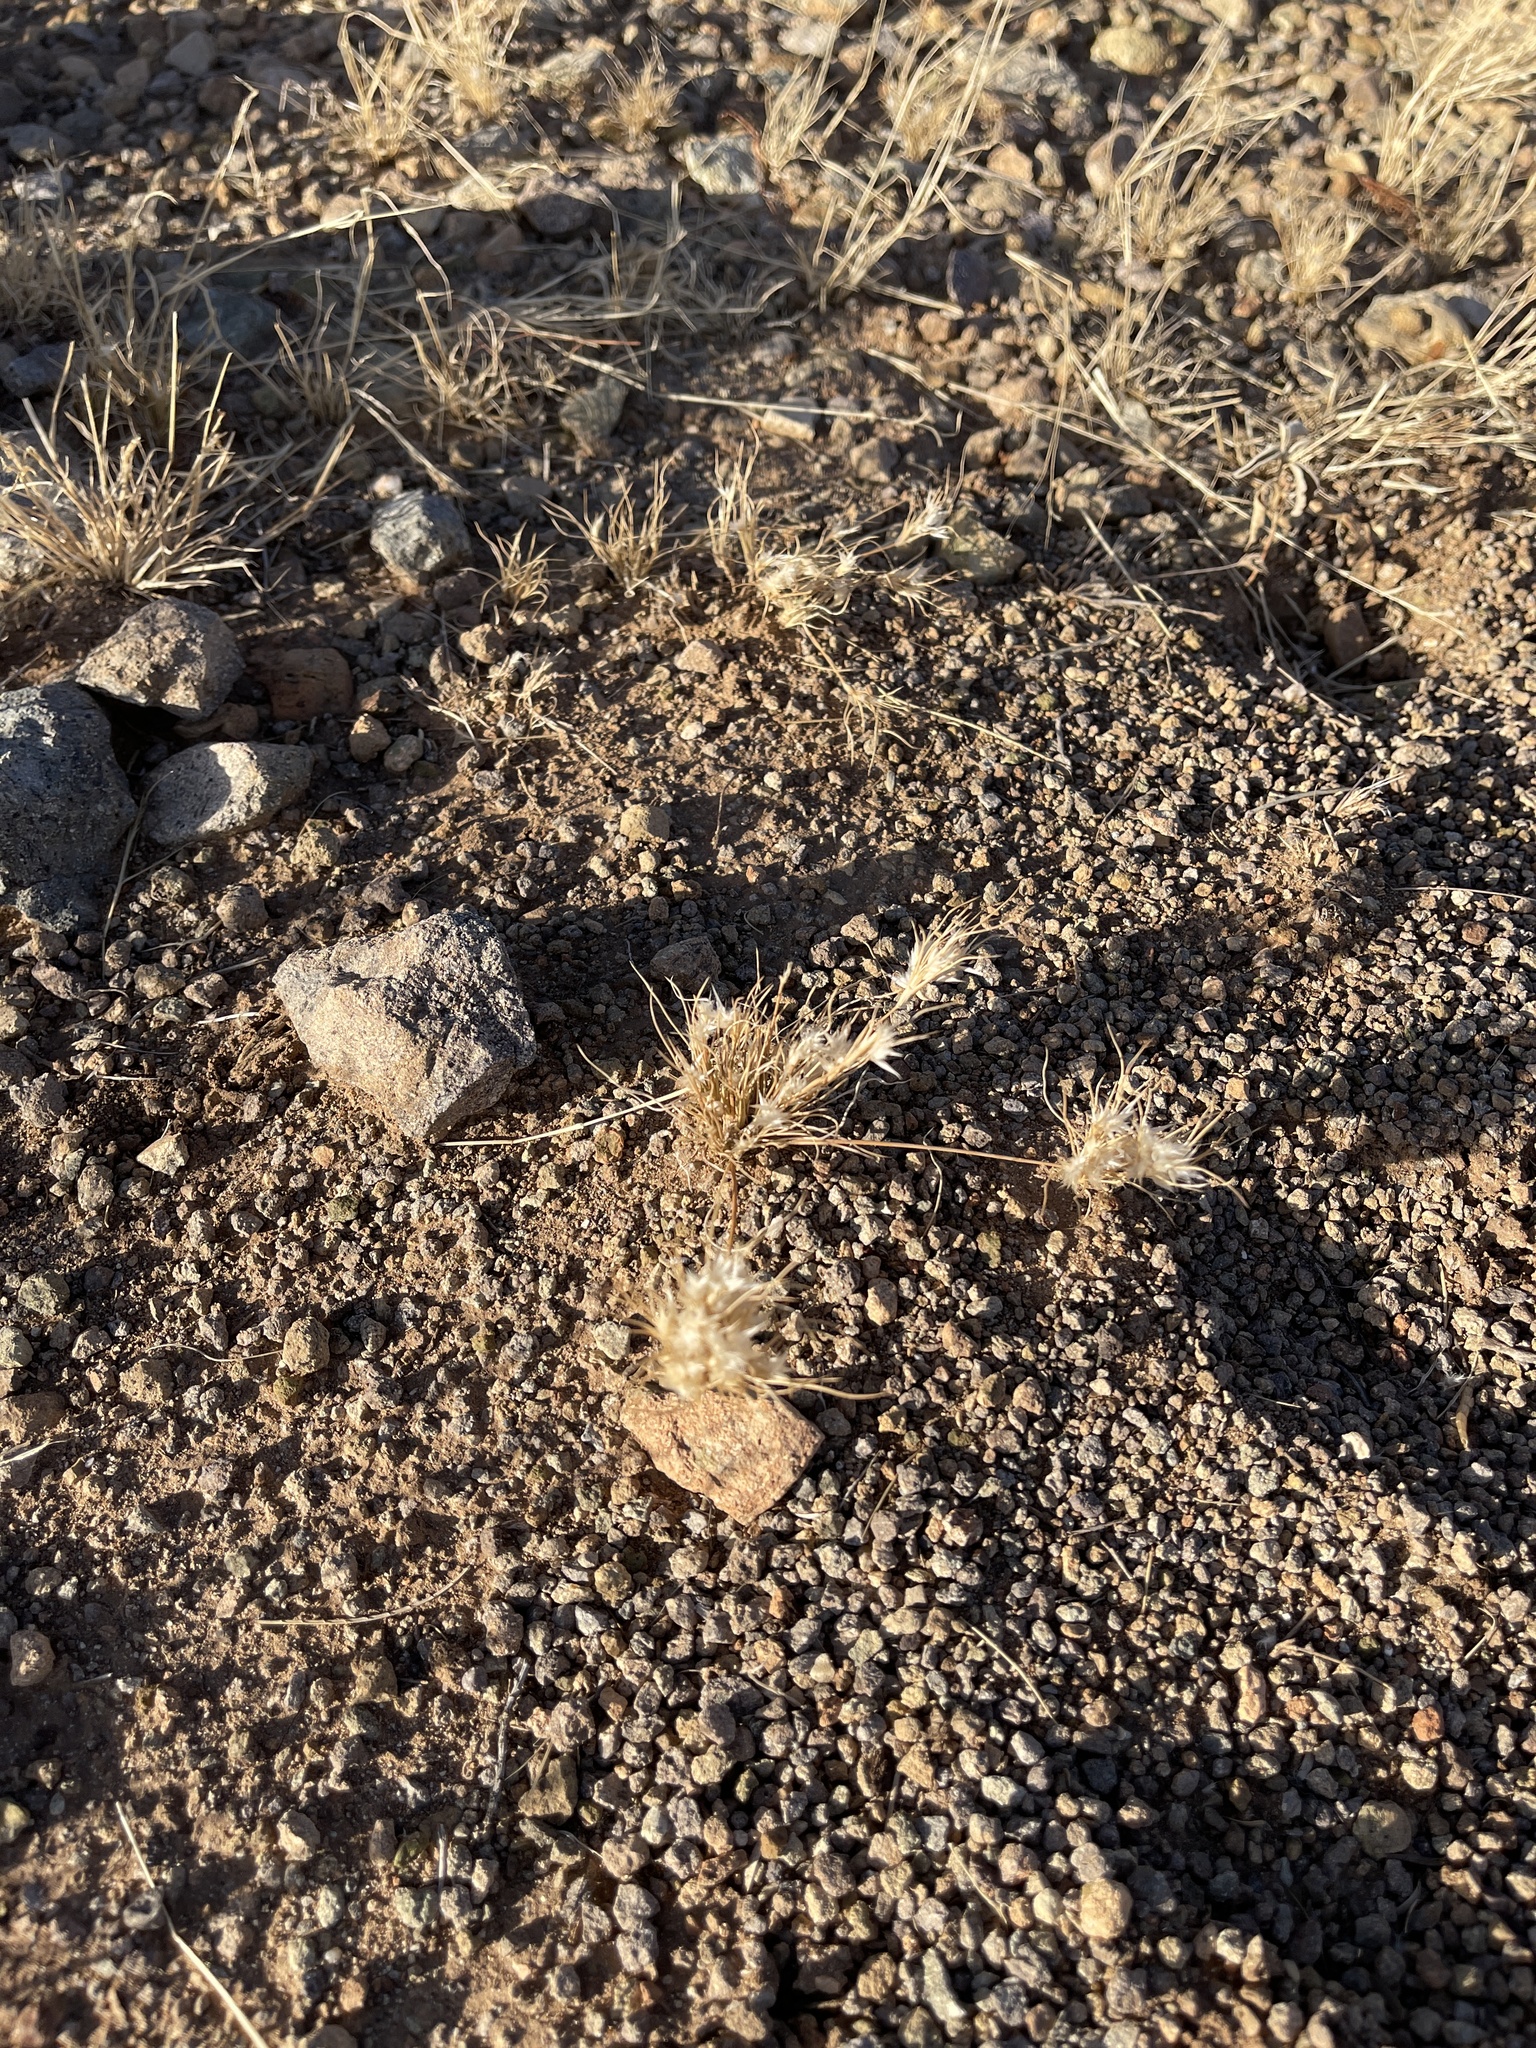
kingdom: Plantae
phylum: Tracheophyta
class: Liliopsida
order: Poales
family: Poaceae
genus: Dasyochloa
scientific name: Dasyochloa pulchella
